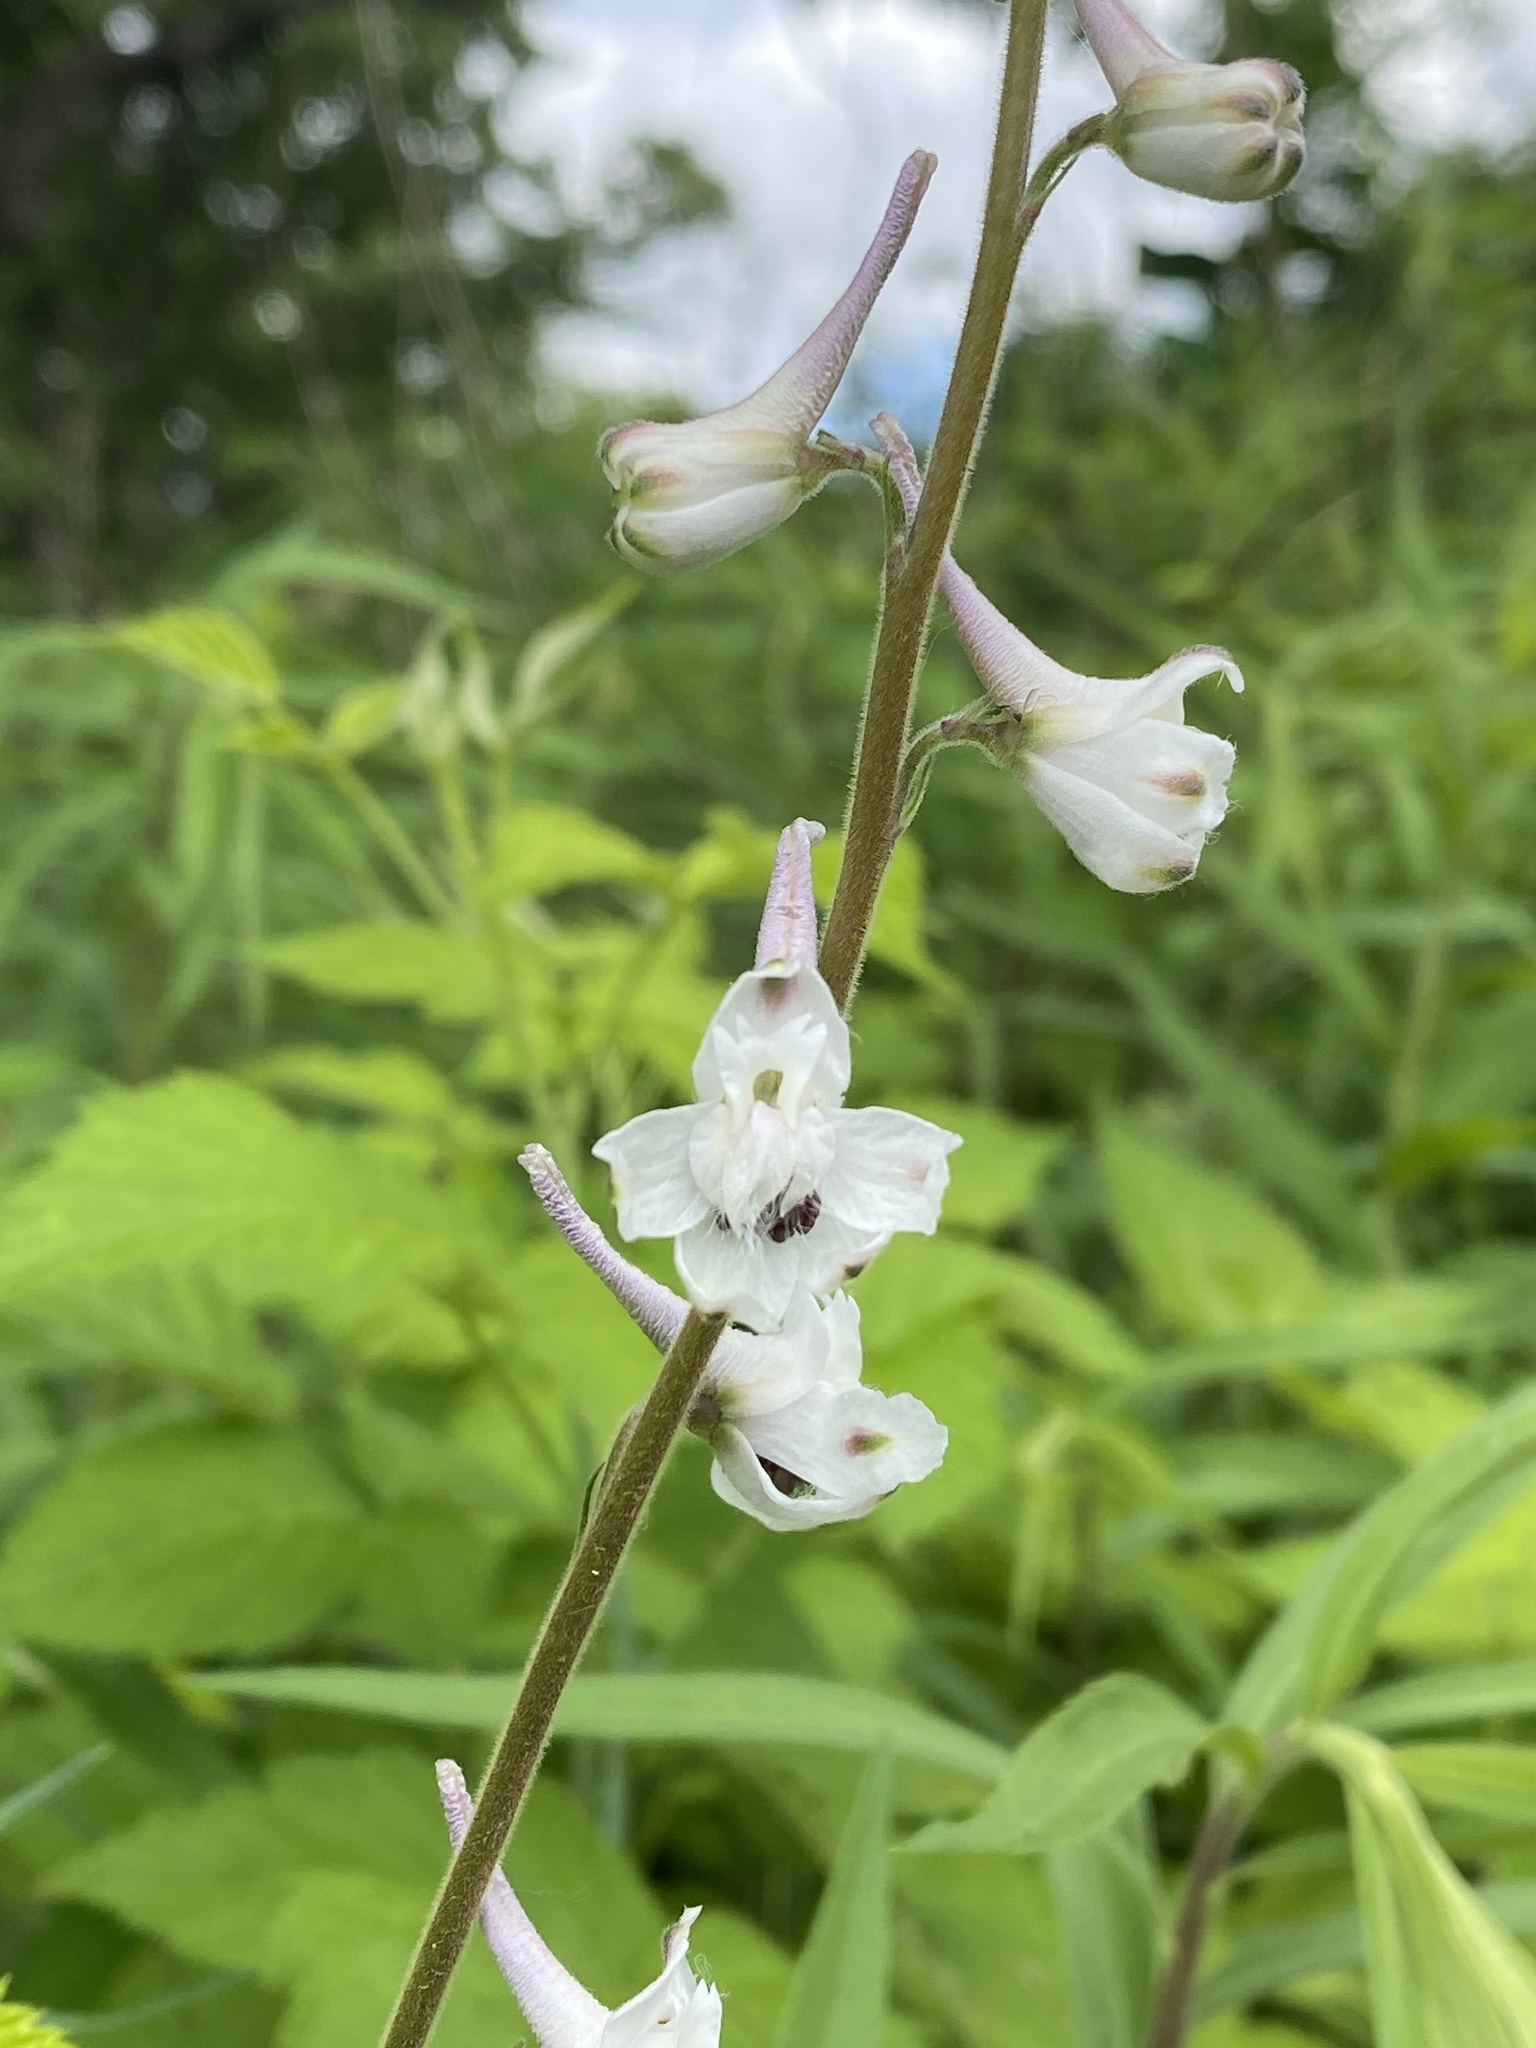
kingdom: Plantae
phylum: Tracheophyta
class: Magnoliopsida
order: Ranunculales
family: Ranunculaceae
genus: Delphinium
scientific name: Delphinium carolinianum
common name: Carolina larkspur
